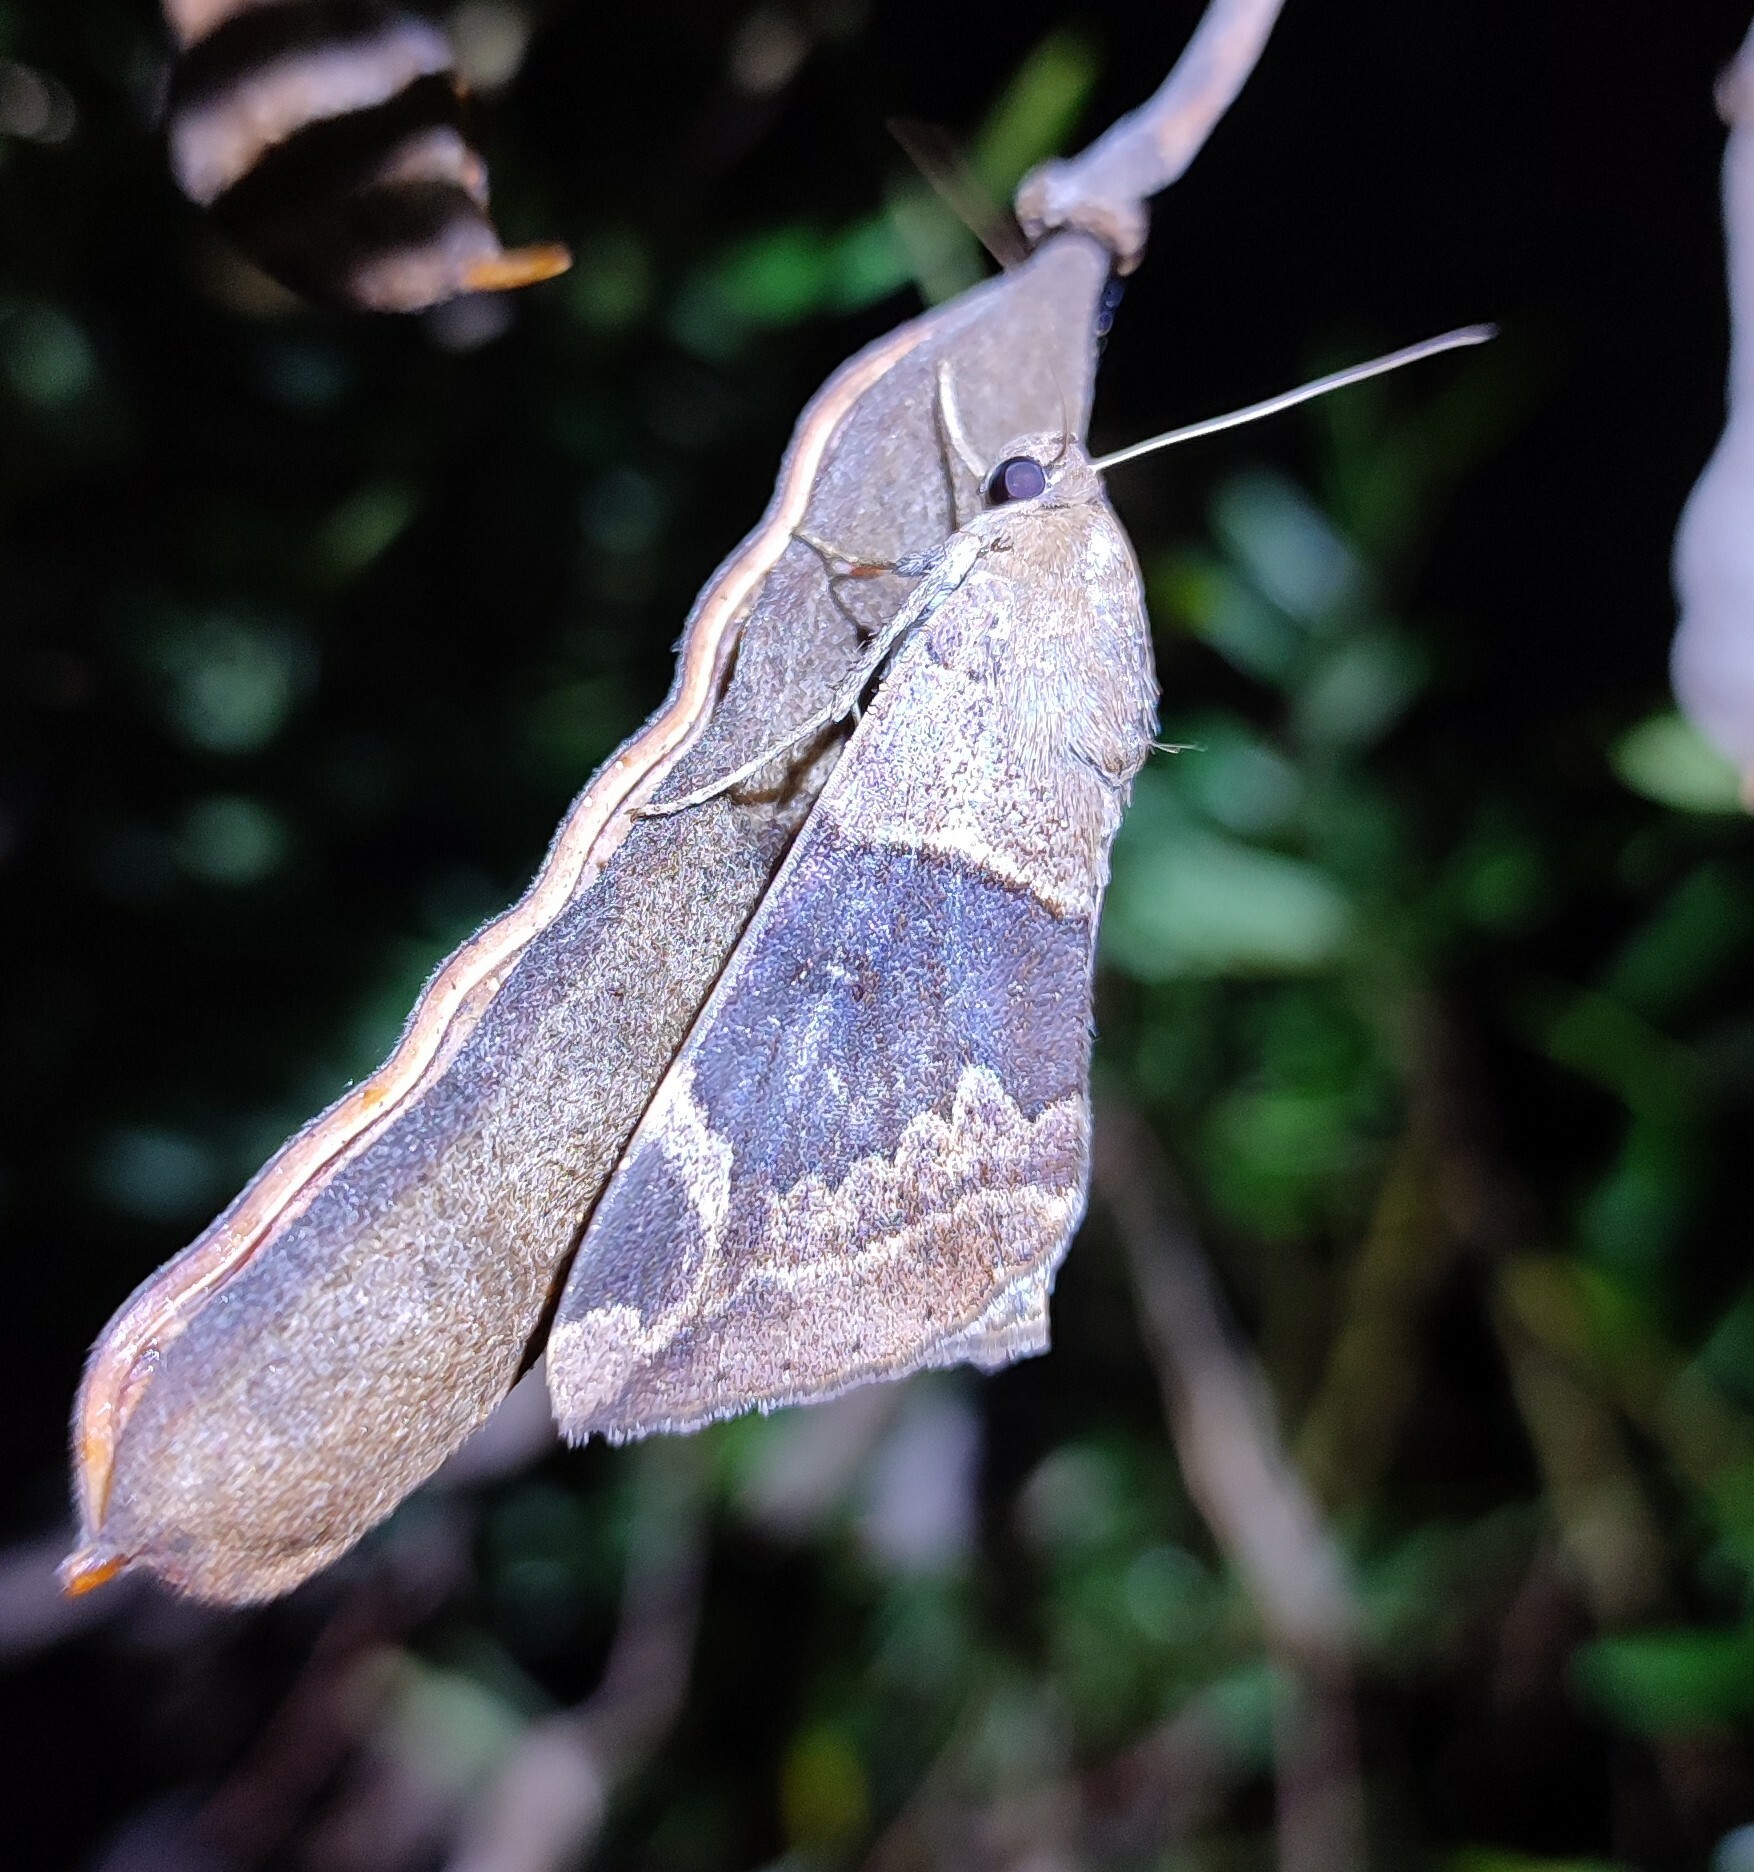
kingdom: Animalia
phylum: Arthropoda
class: Insecta
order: Lepidoptera
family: Erebidae
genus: Achaea
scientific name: Achaea lienardi
